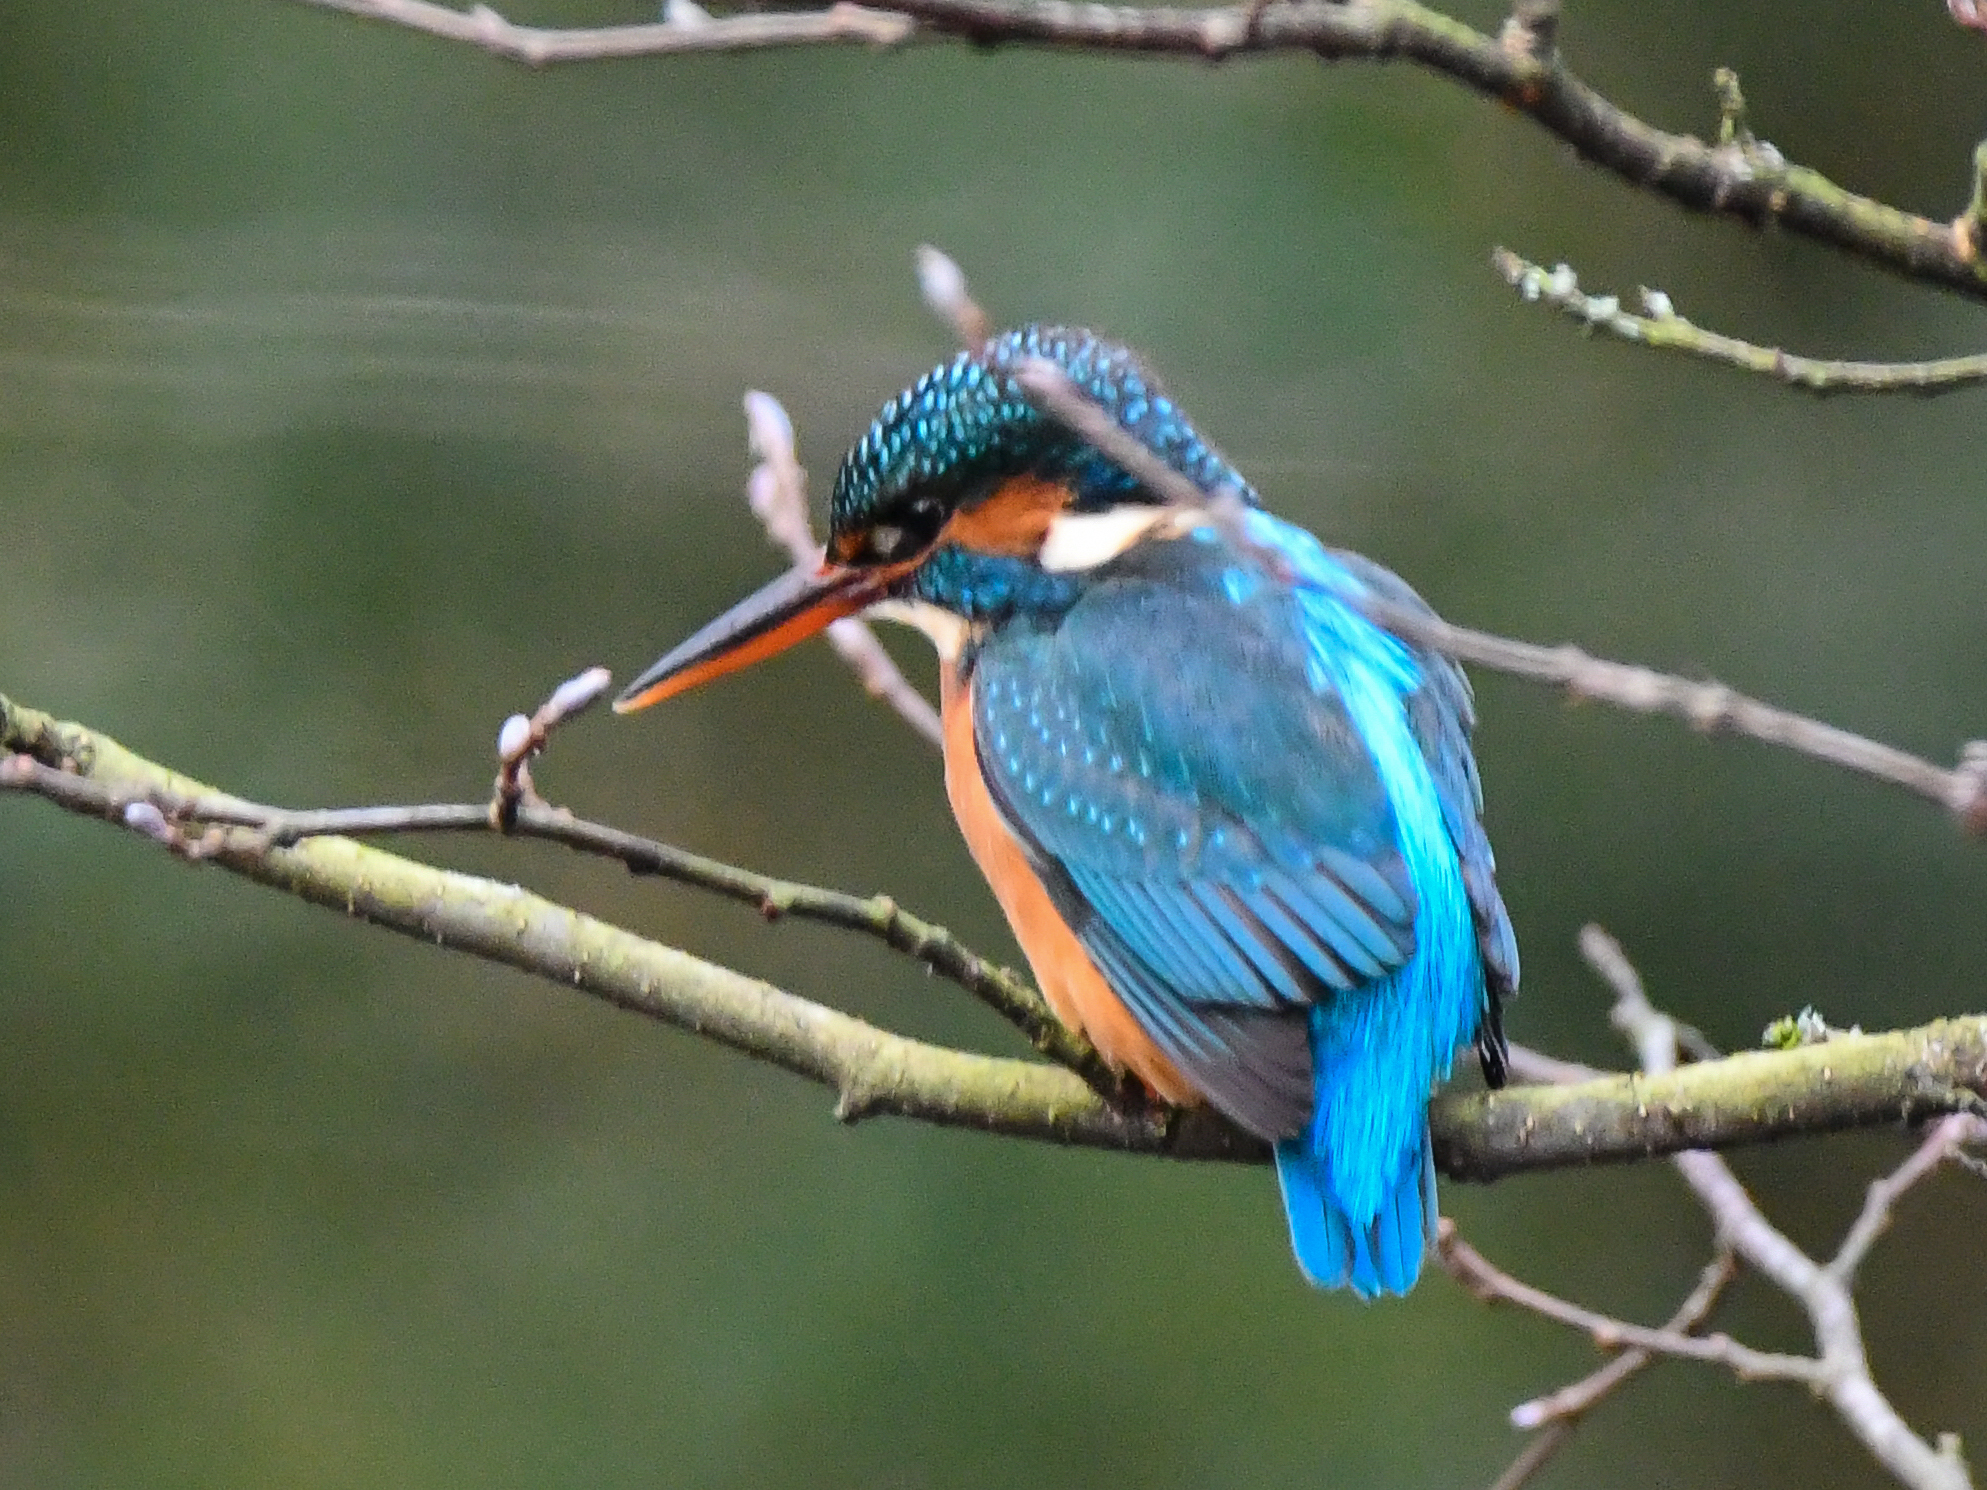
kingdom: Animalia
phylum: Chordata
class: Aves
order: Coraciiformes
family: Alcedinidae
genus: Alcedo
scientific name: Alcedo atthis
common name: Common kingfisher
